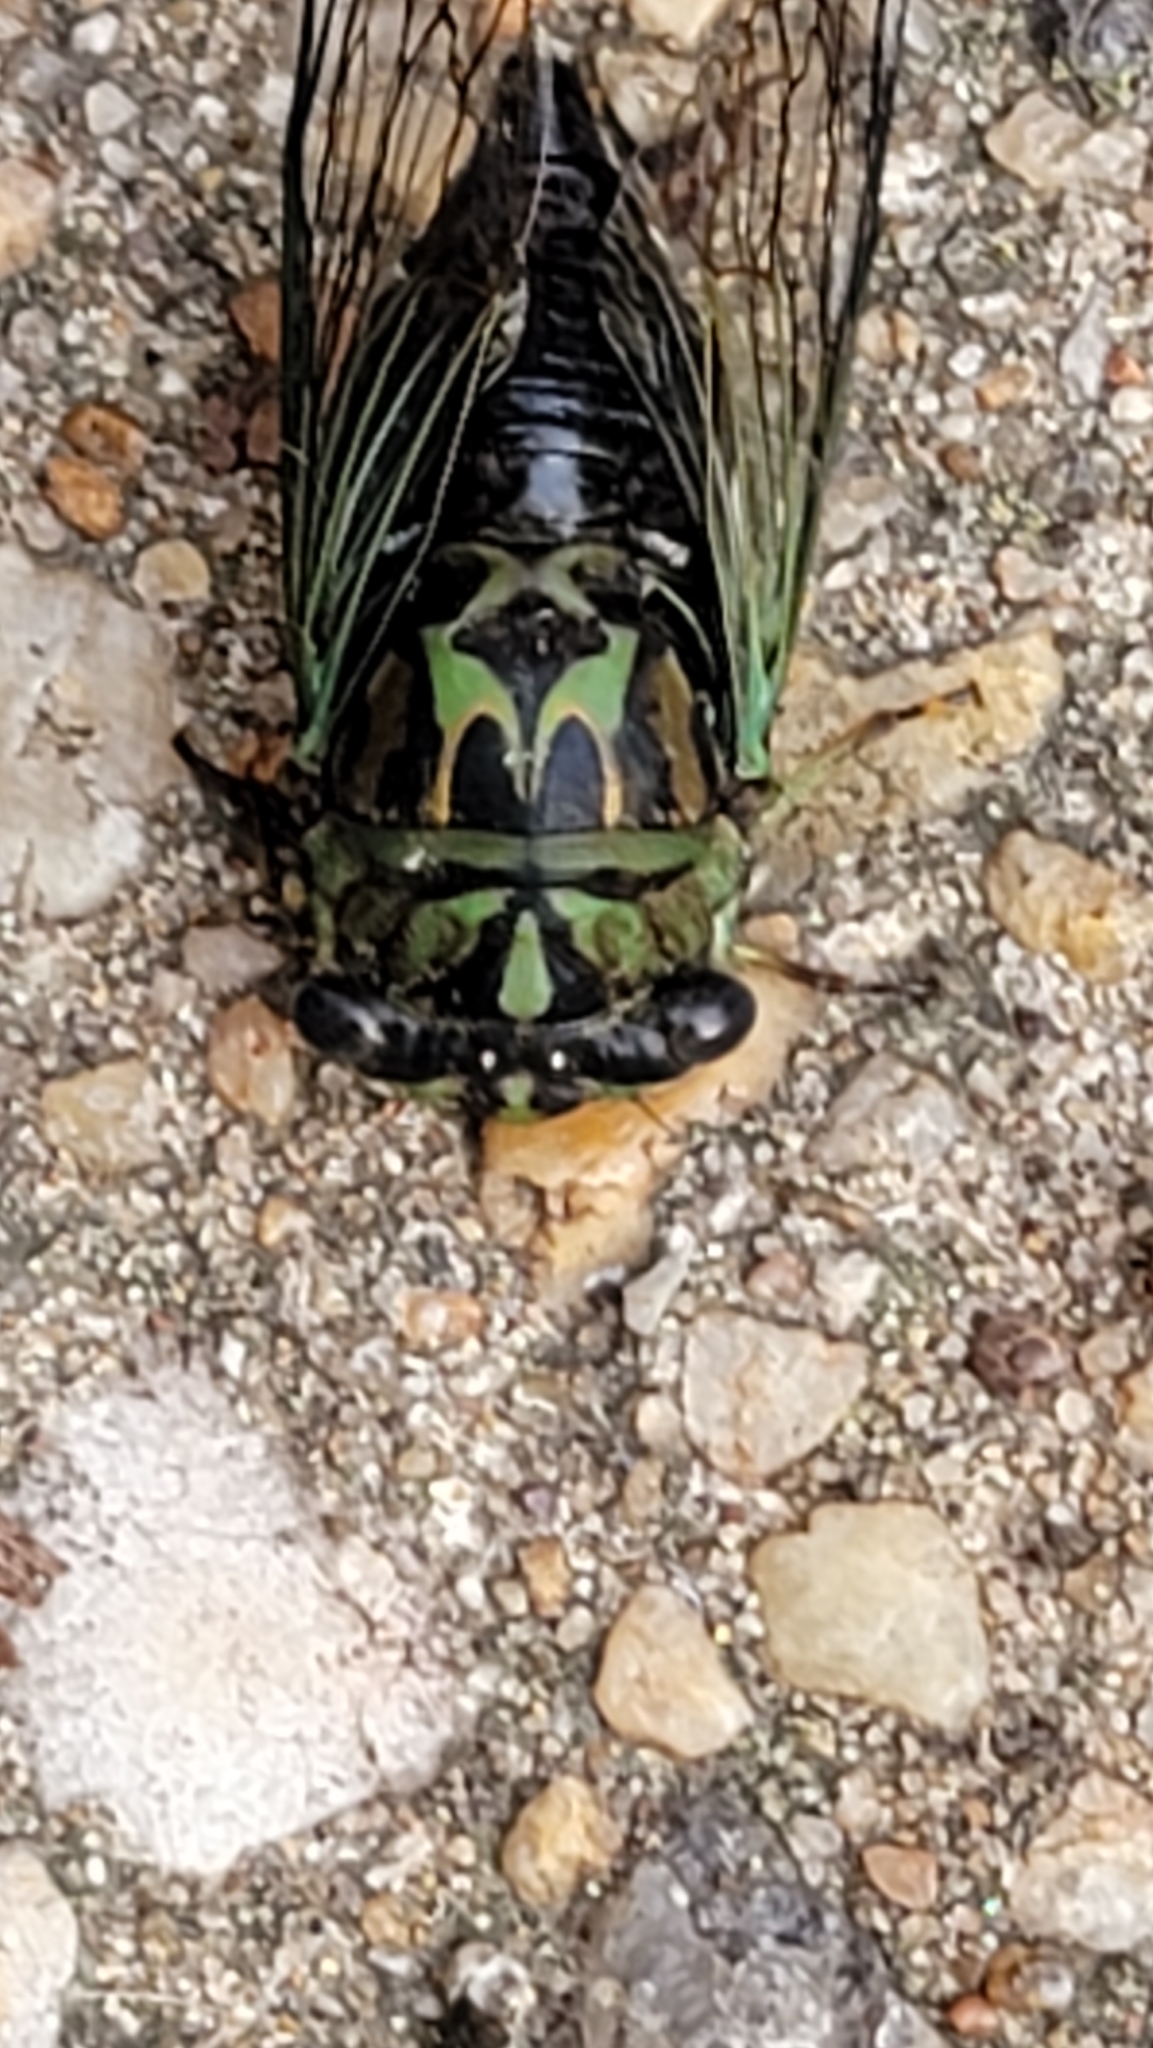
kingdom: Animalia
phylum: Arthropoda
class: Insecta
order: Hemiptera
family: Cicadidae
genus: Neotibicen
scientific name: Neotibicen robinsonianus
